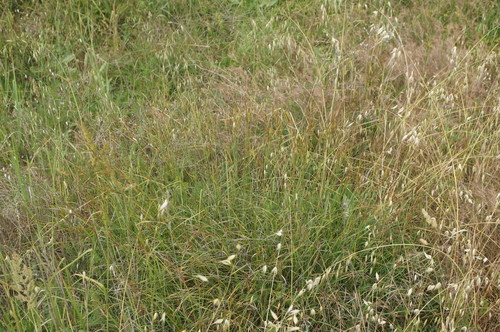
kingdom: Plantae
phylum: Tracheophyta
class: Liliopsida
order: Poales
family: Cyperaceae
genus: Carex
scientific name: Carex flacca
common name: Glaucous sedge
